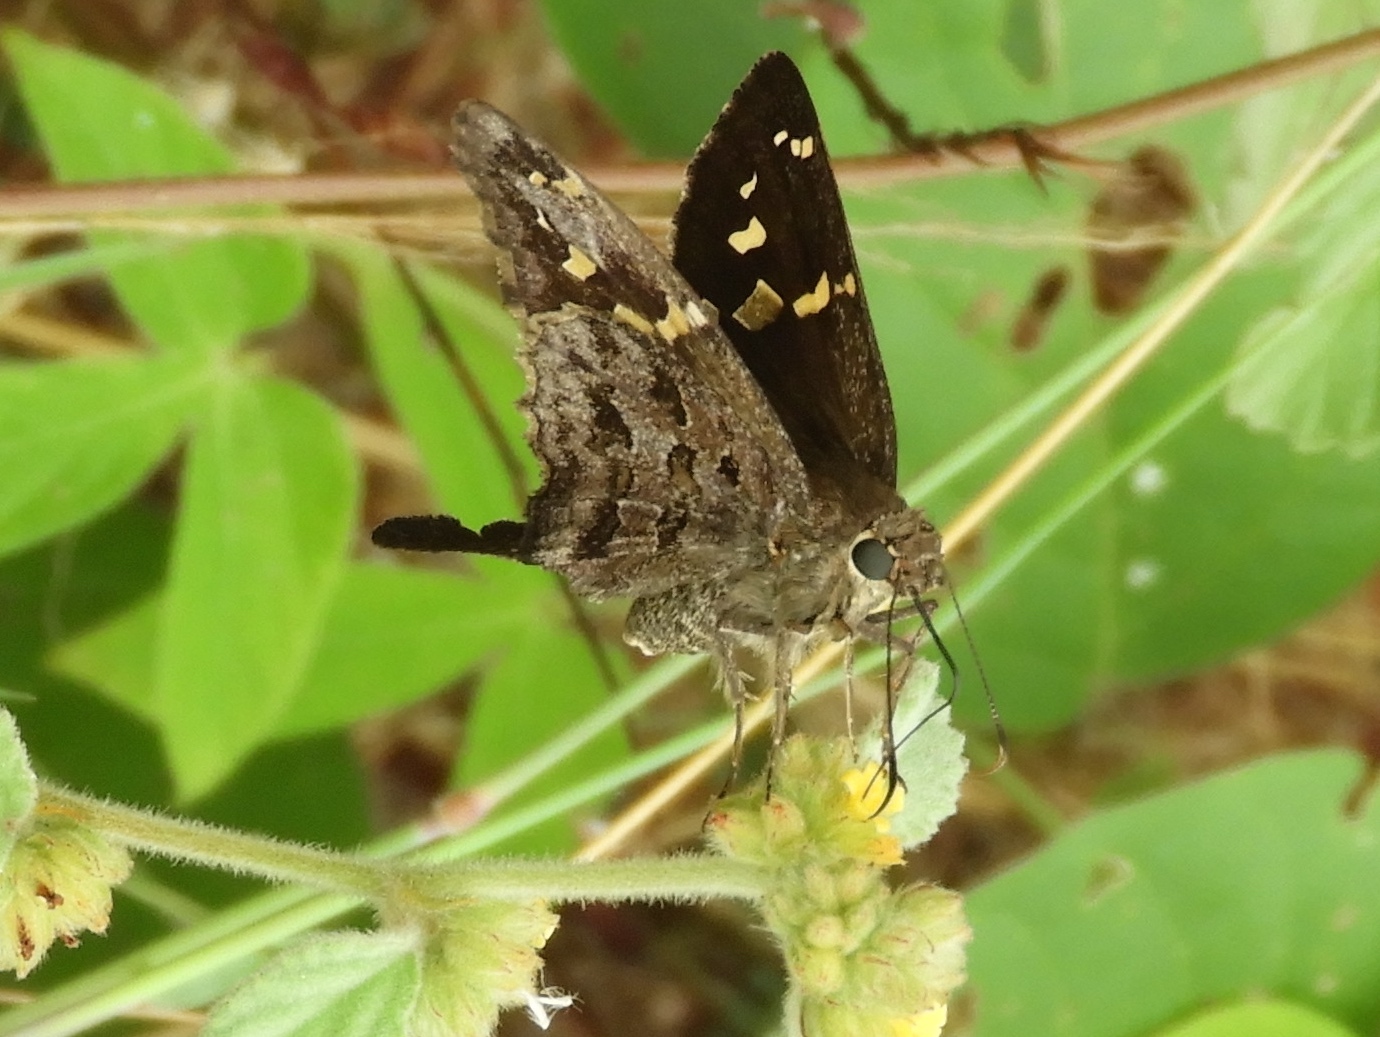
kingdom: Animalia
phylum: Arthropoda
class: Insecta
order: Lepidoptera
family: Hesperiidae
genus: Thorybes
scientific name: Thorybes
